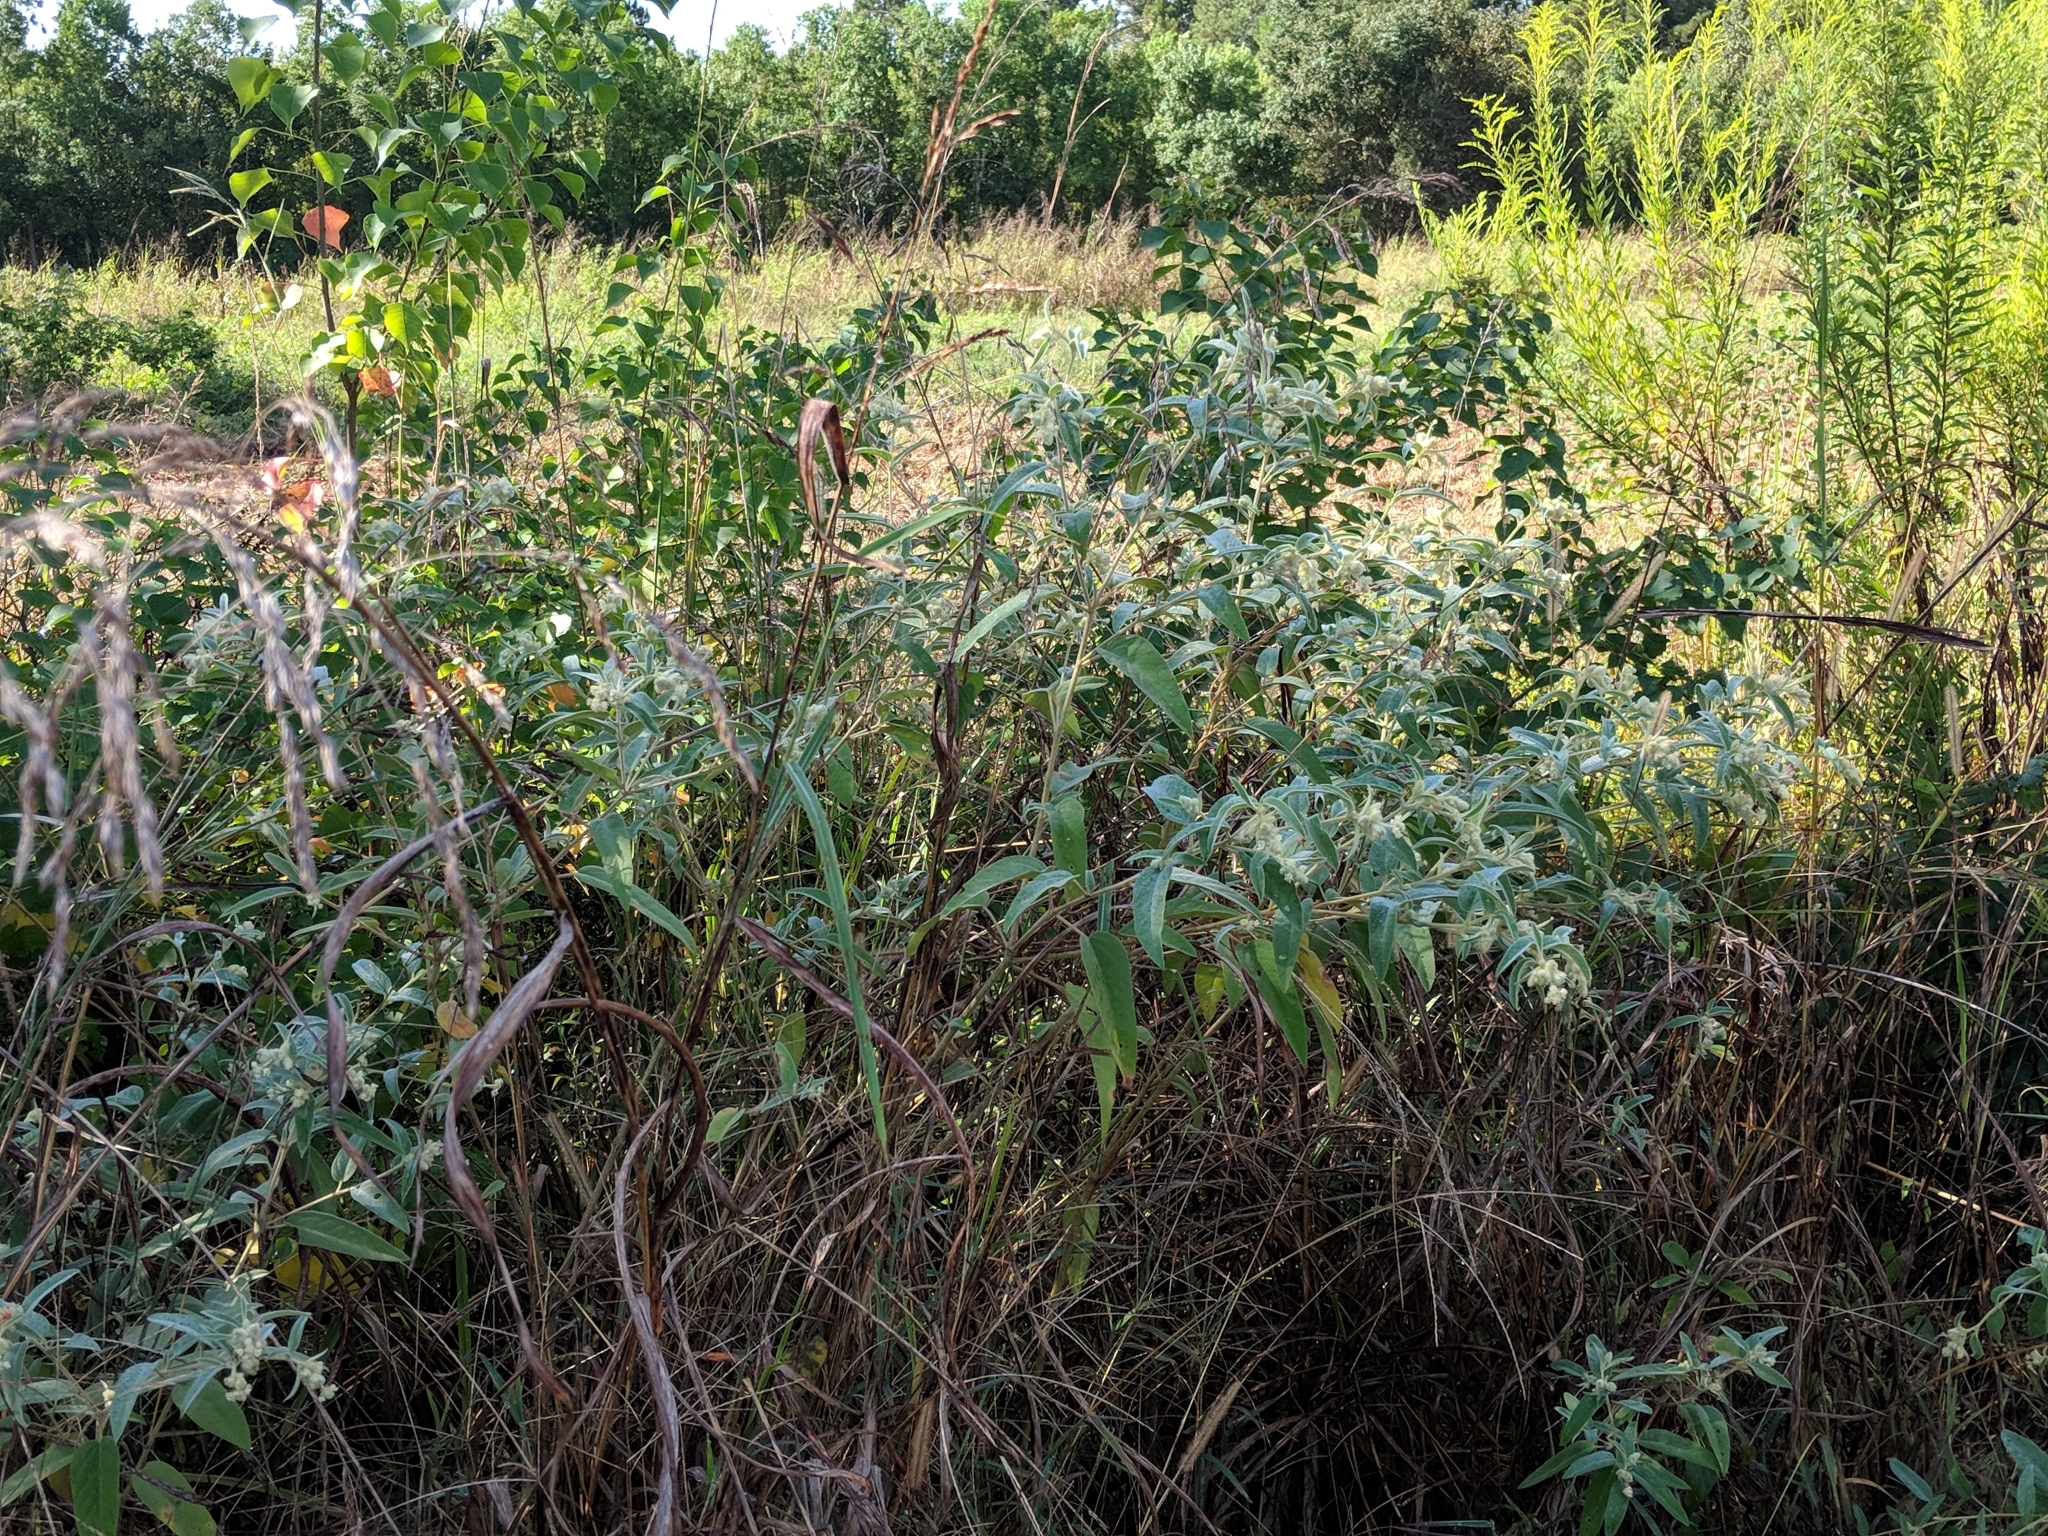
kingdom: Plantae
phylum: Tracheophyta
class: Magnoliopsida
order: Malpighiales
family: Euphorbiaceae
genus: Croton
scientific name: Croton lindheimeri
